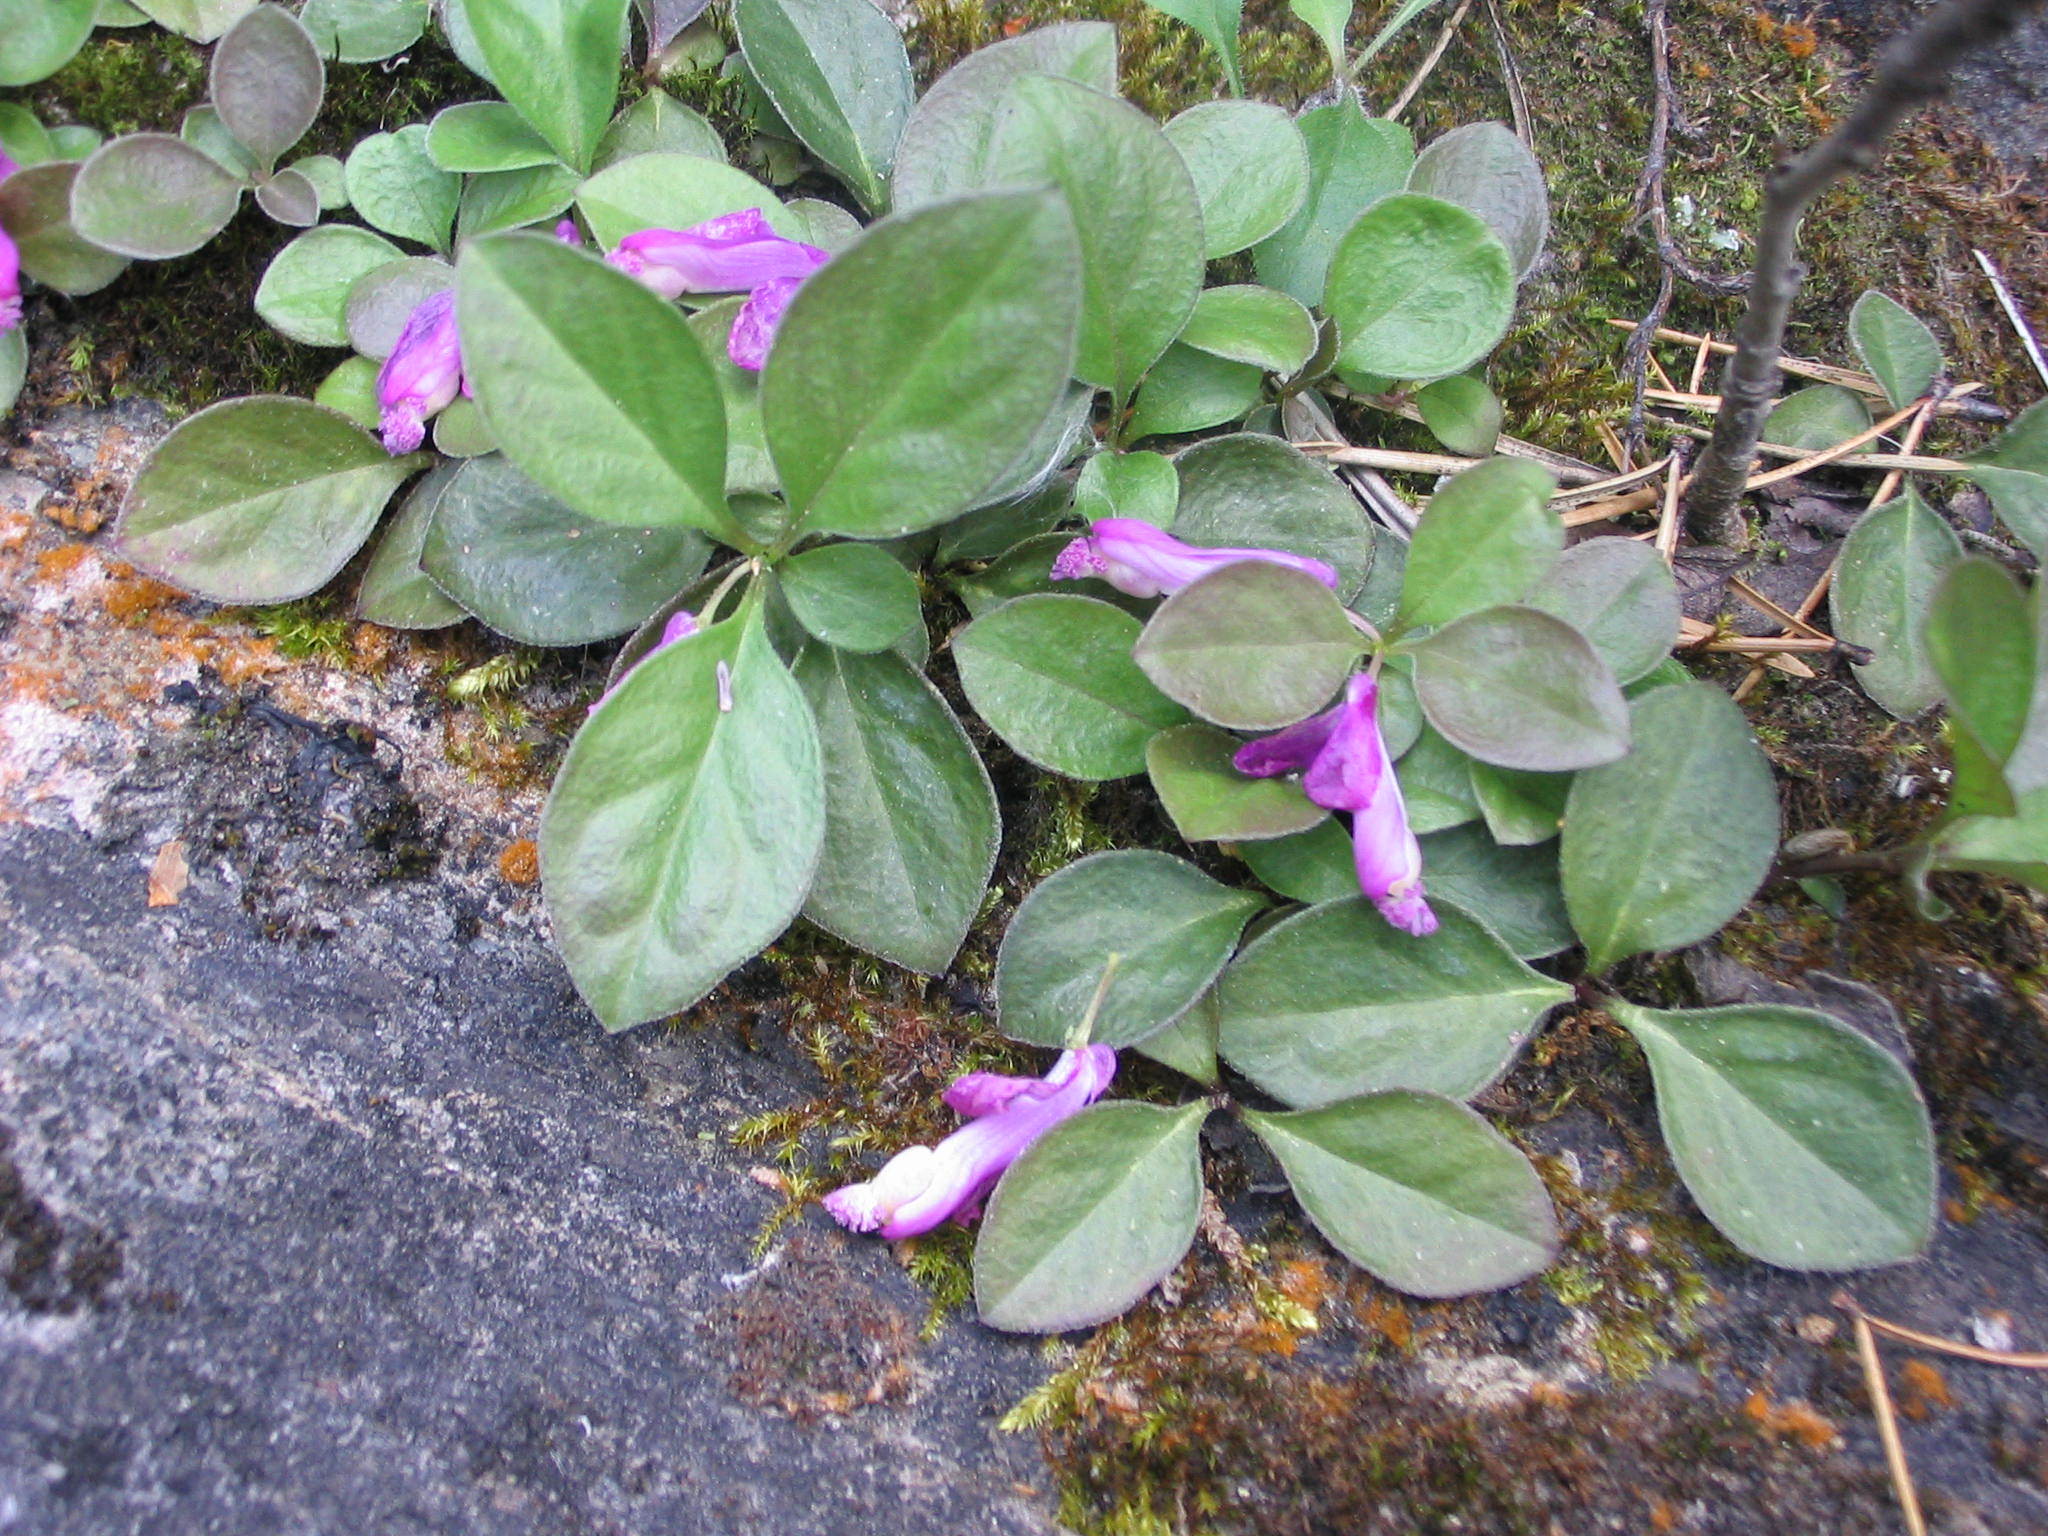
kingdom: Plantae
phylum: Tracheophyta
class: Magnoliopsida
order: Fabales
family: Polygalaceae
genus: Polygaloides
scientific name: Polygaloides paucifolia
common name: Bird-on-the-wing
